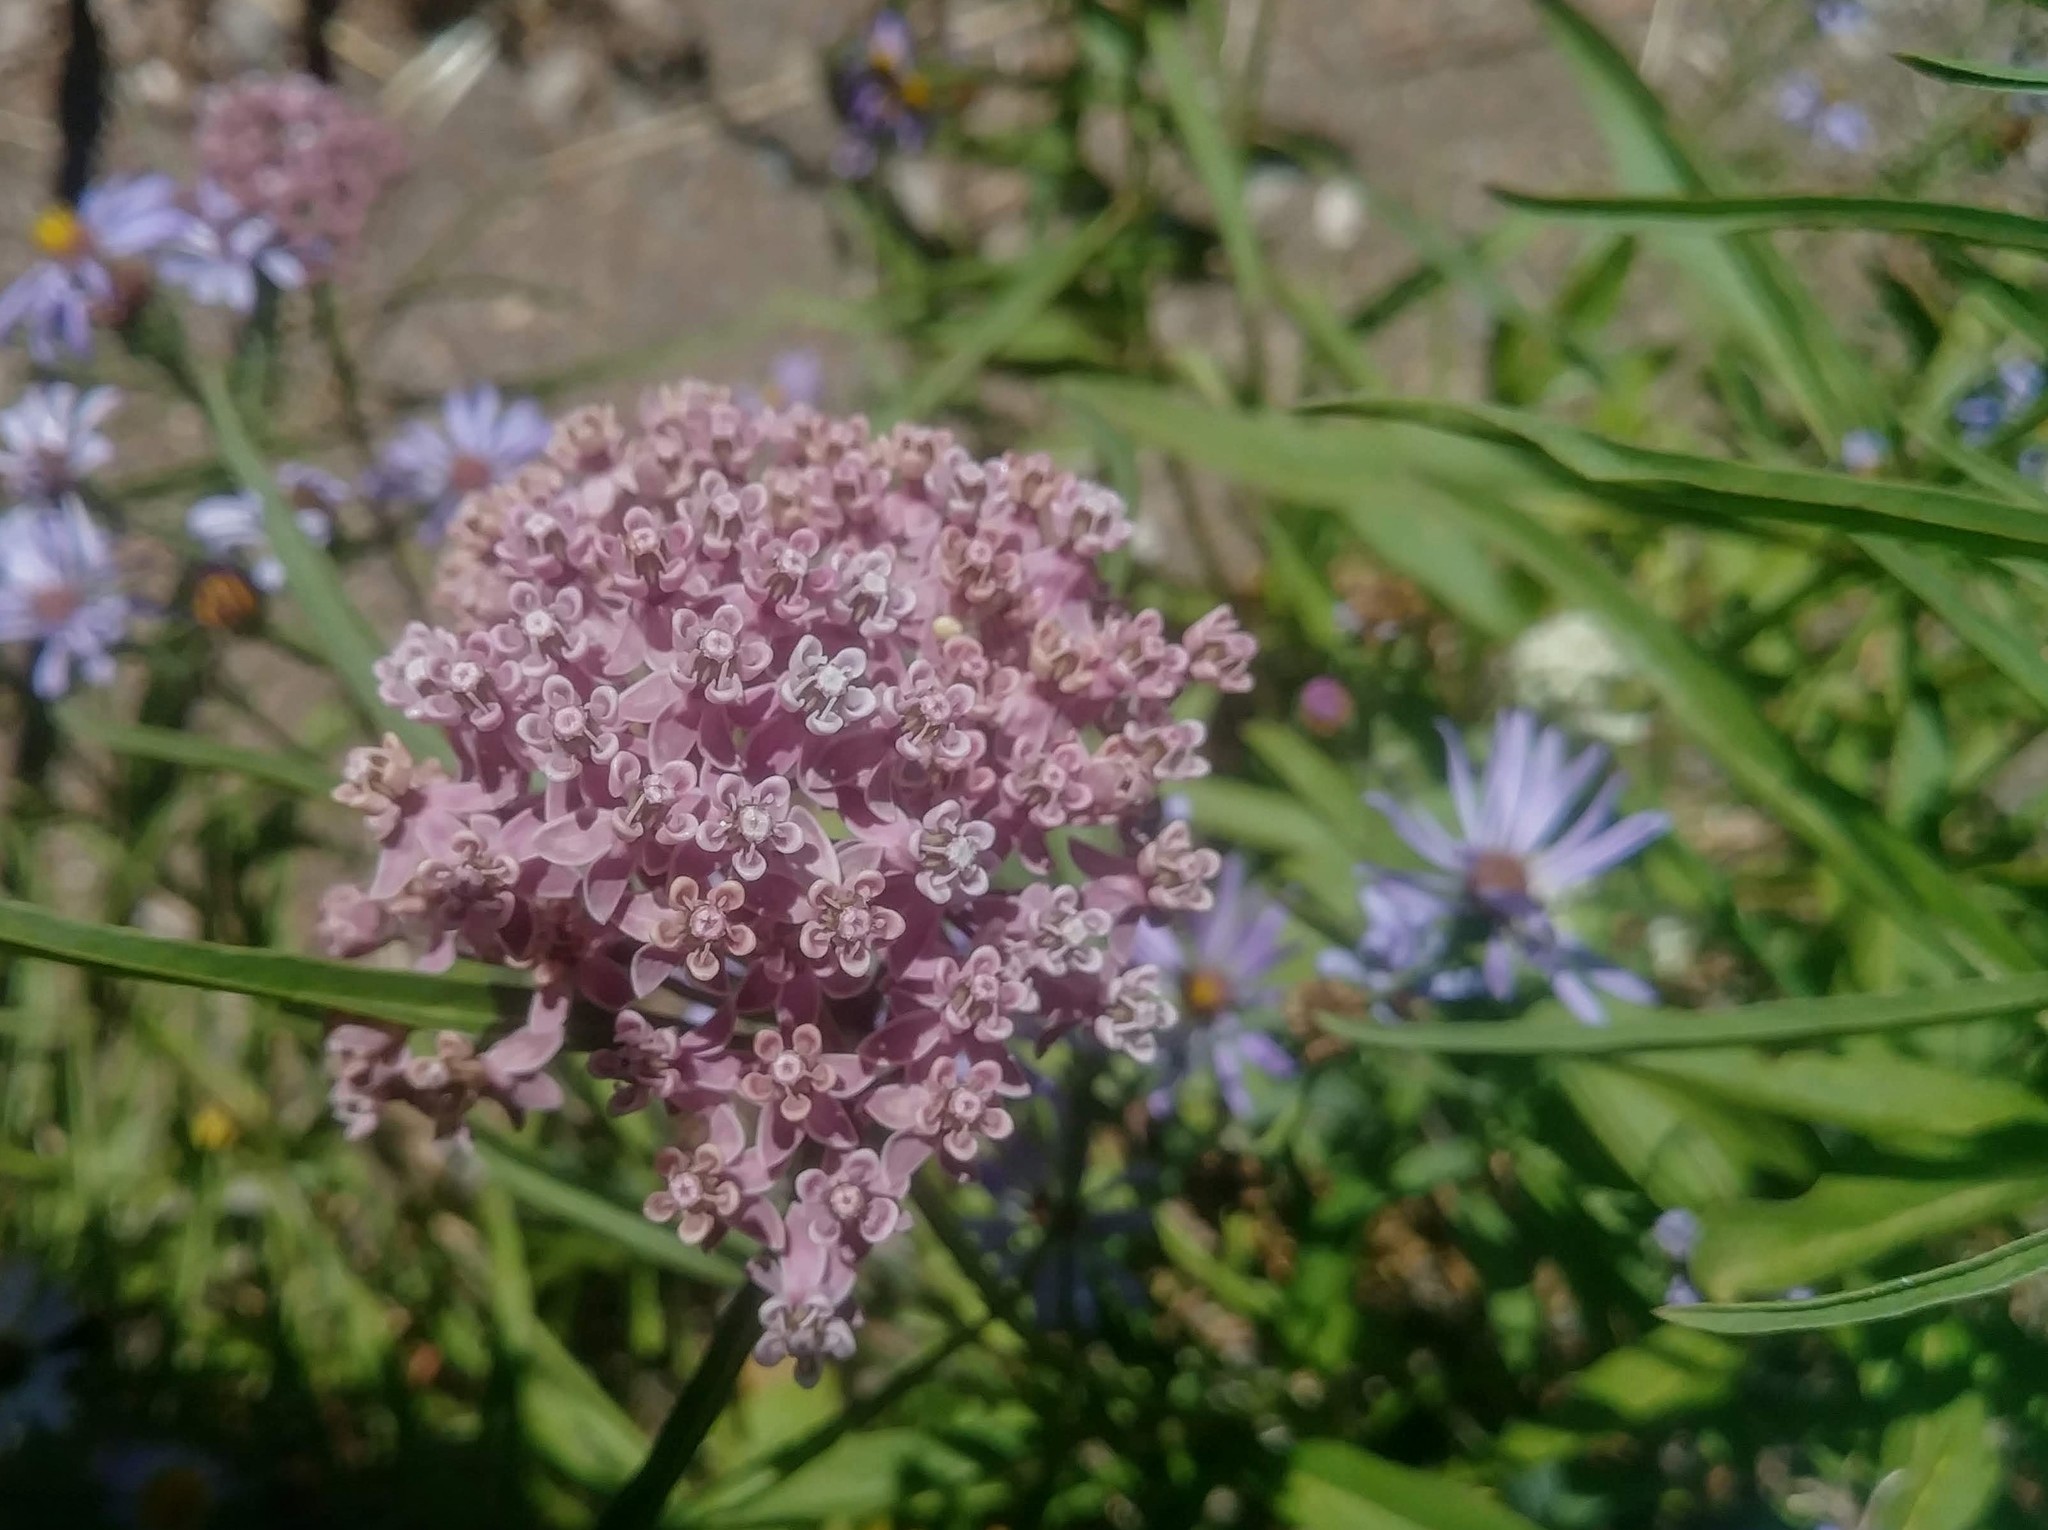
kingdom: Plantae
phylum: Tracheophyta
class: Magnoliopsida
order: Gentianales
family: Apocynaceae
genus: Asclepias
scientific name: Asclepias fascicularis
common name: Mexican milkweed
